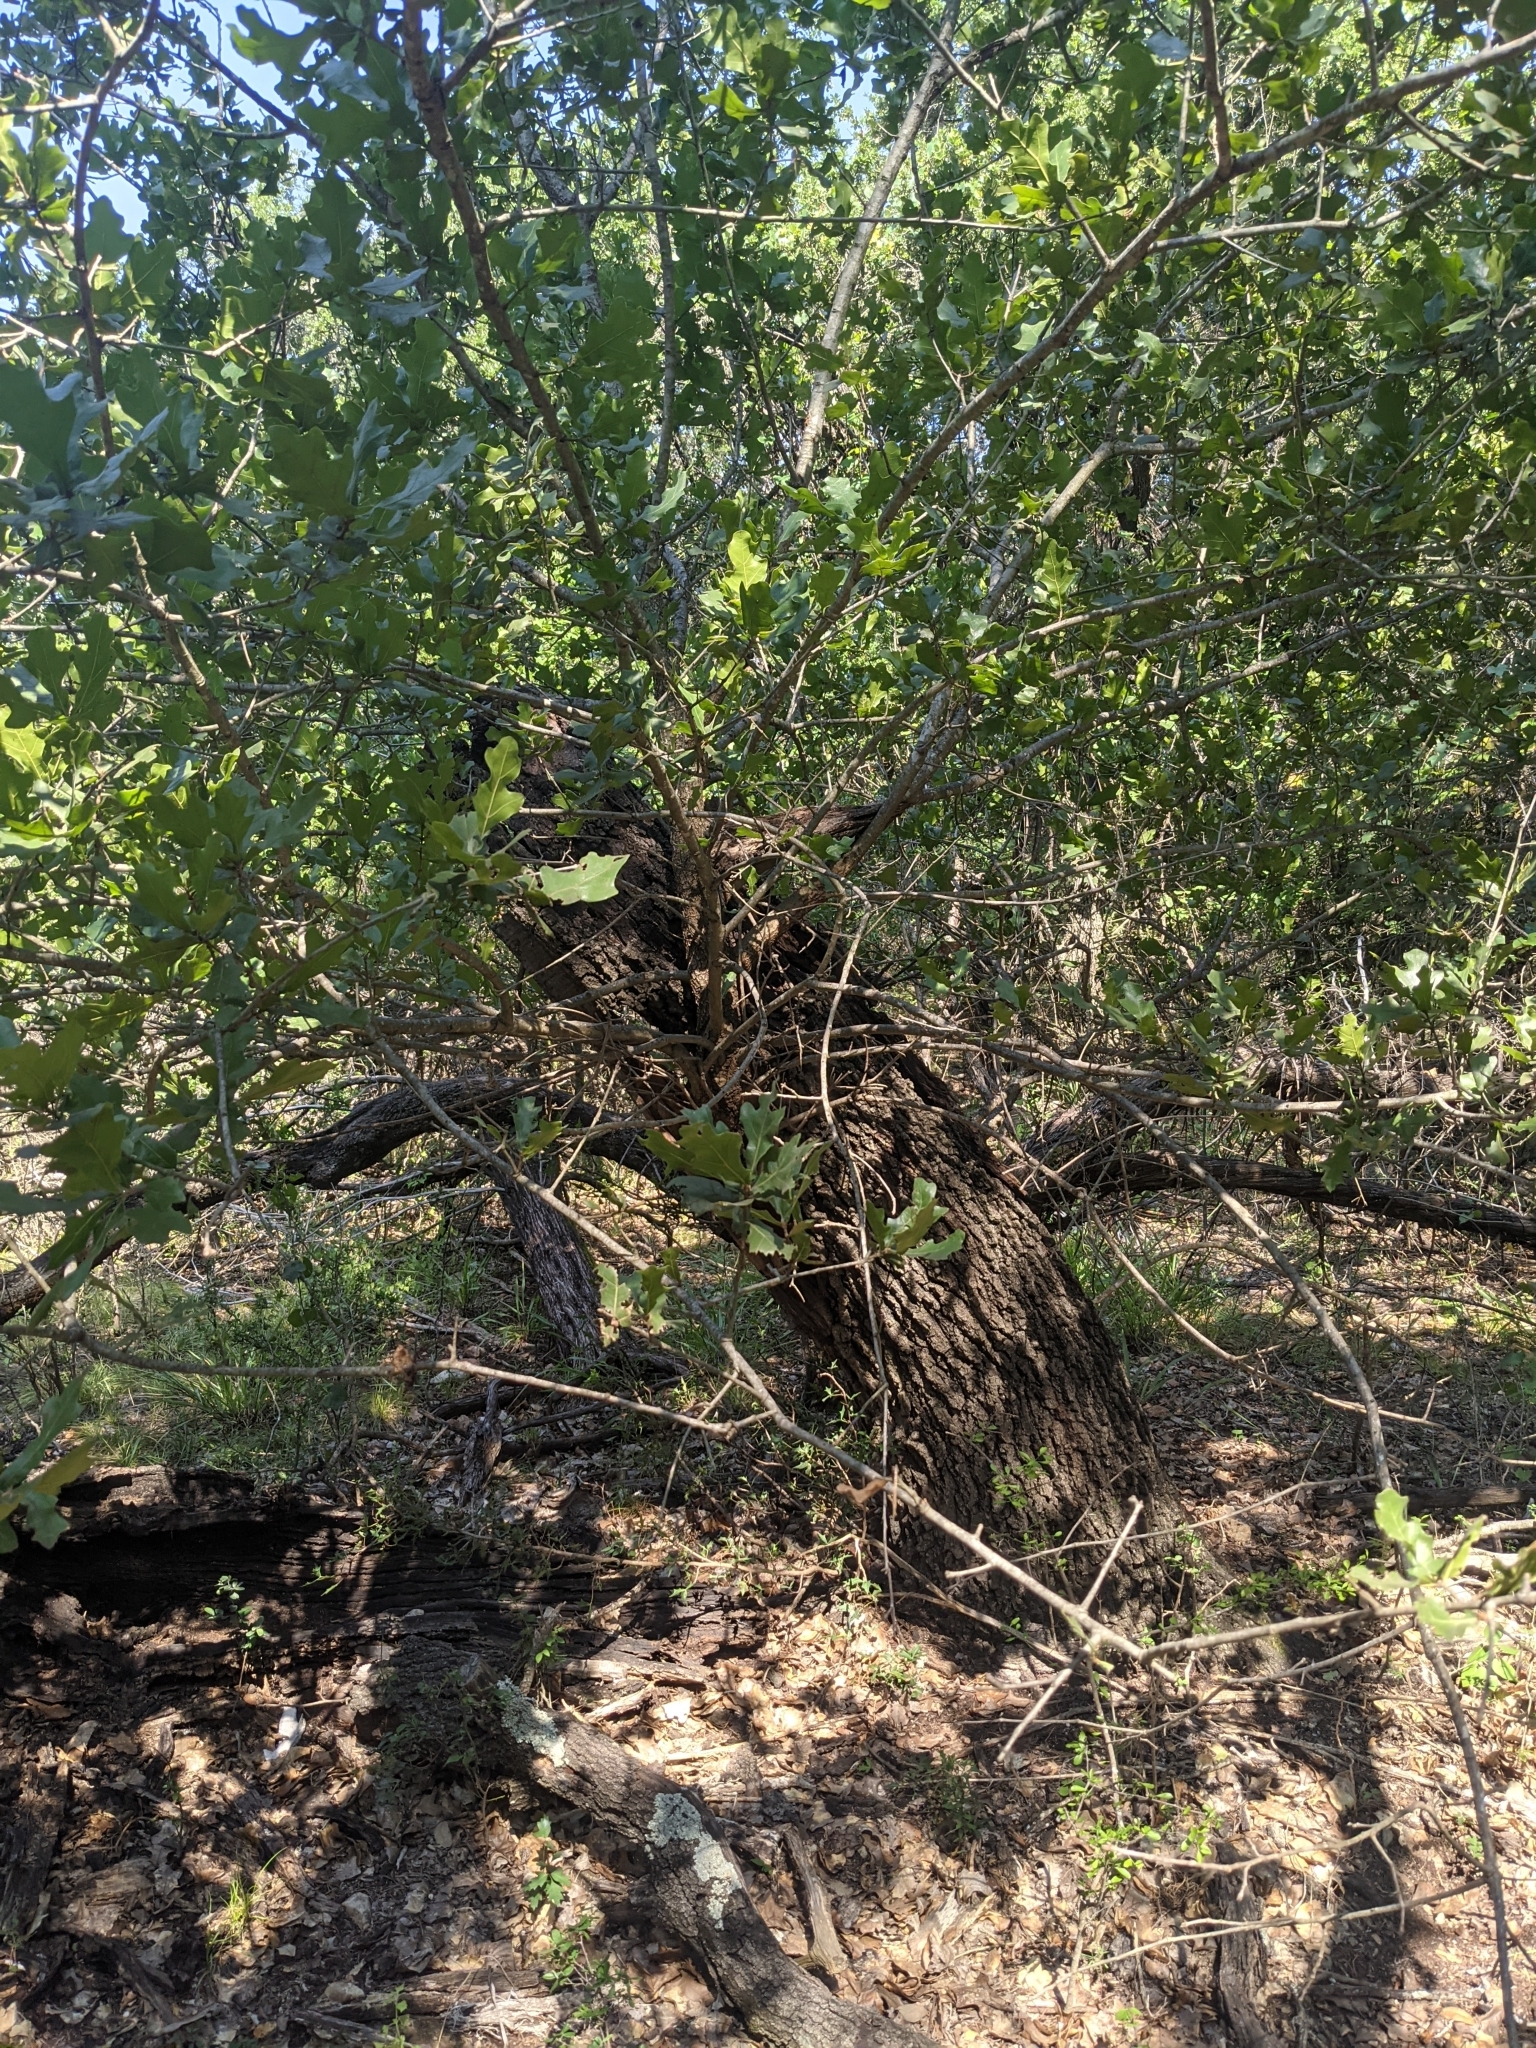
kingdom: Plantae
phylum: Tracheophyta
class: Magnoliopsida
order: Fagales
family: Fagaceae
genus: Quercus
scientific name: Quercus marilandica
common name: Blackjack oak
